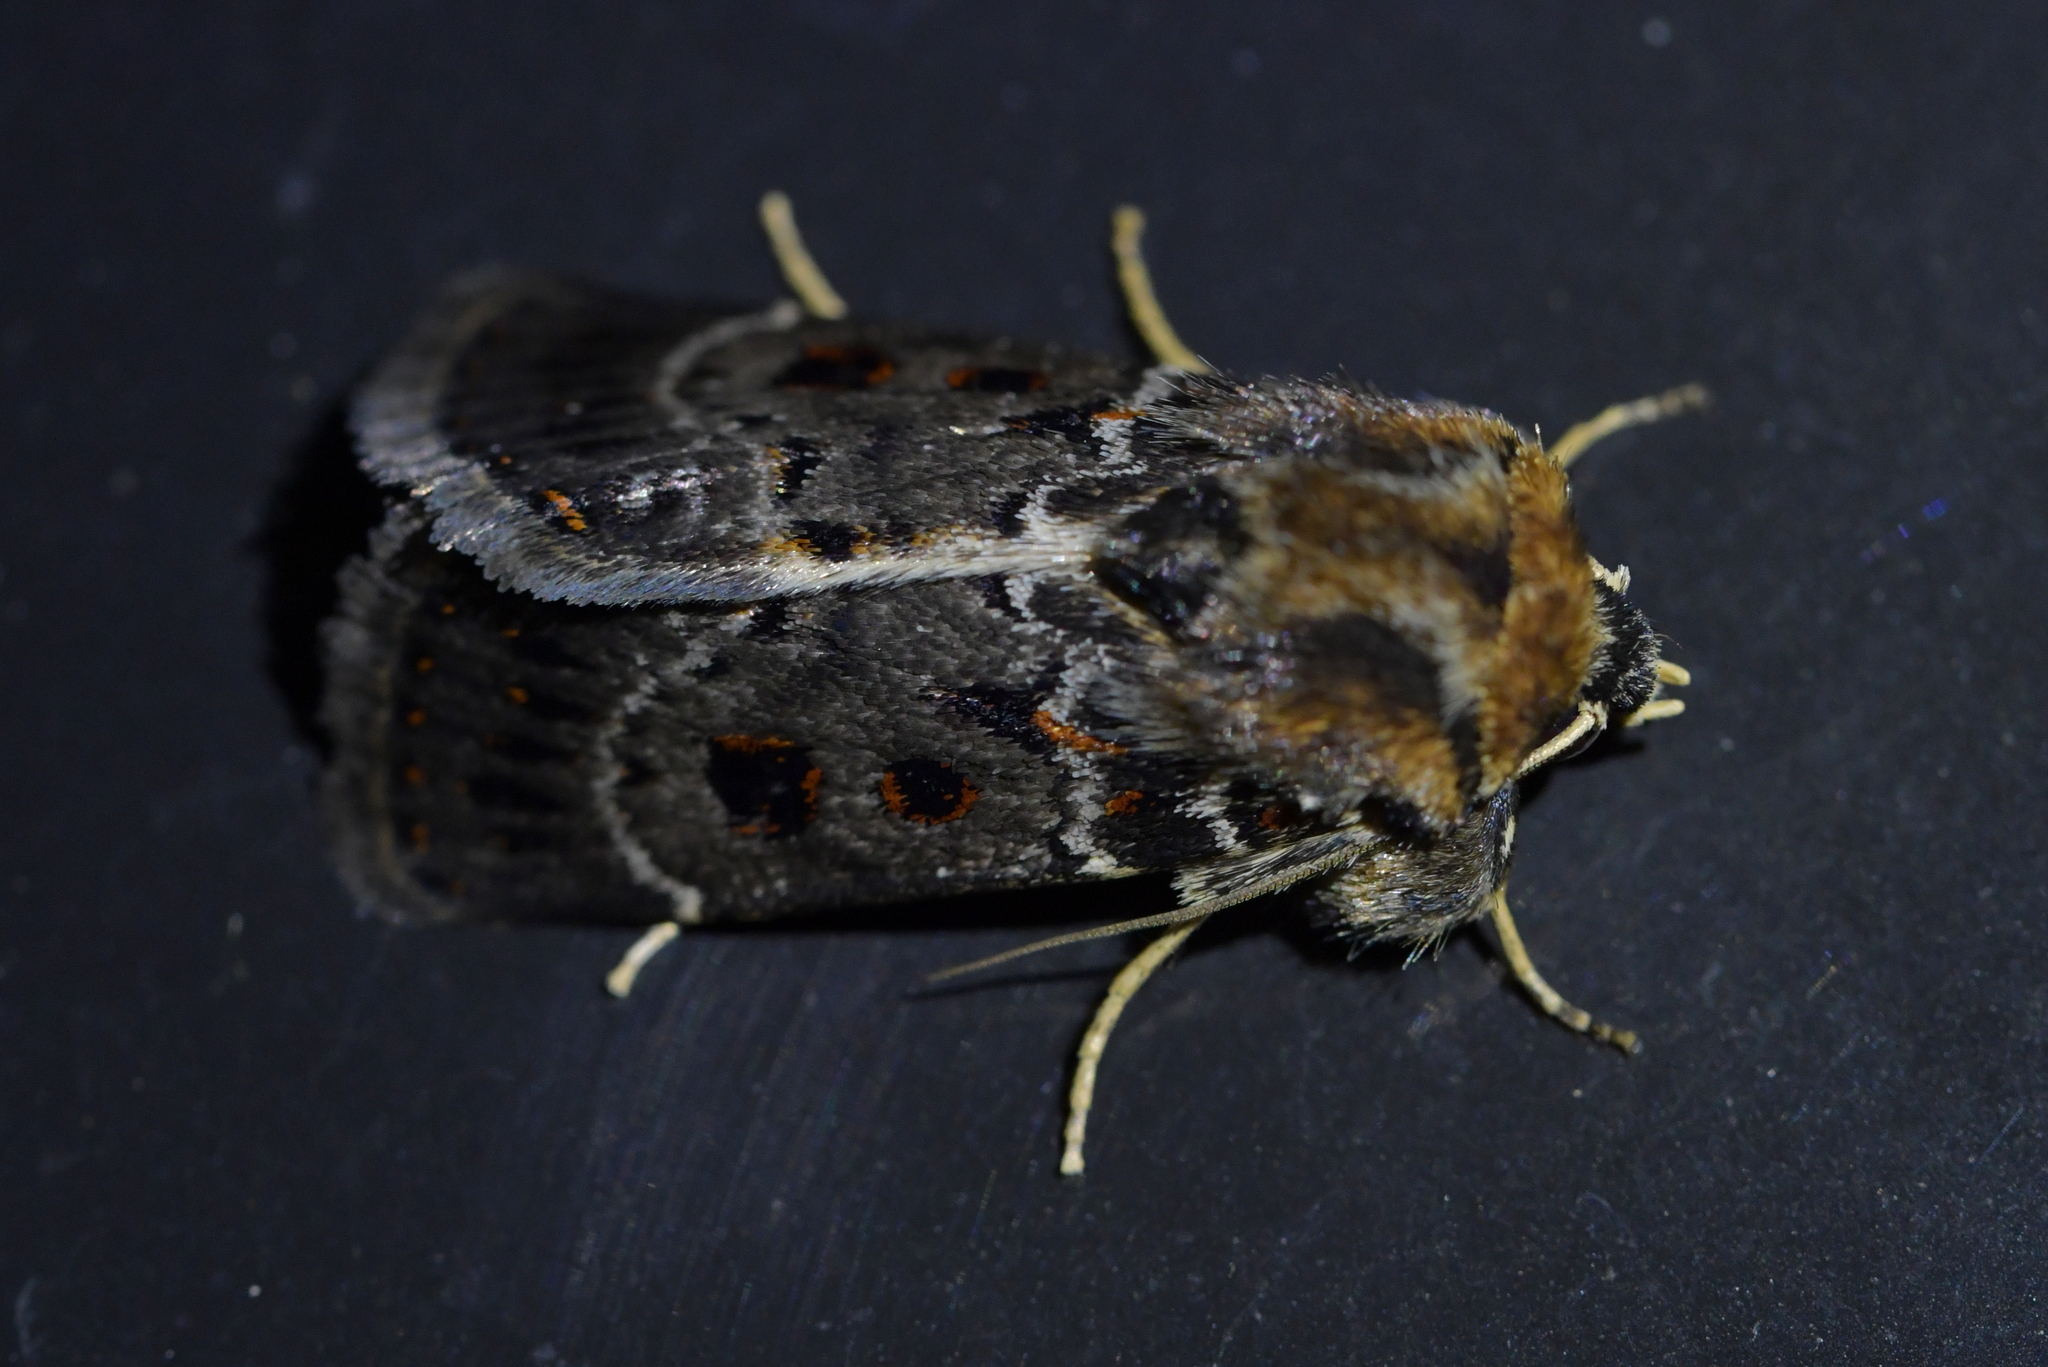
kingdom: Animalia
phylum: Arthropoda
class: Insecta
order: Lepidoptera
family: Noctuidae
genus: Proteuxoa
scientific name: Proteuxoa sanguinipuncta
